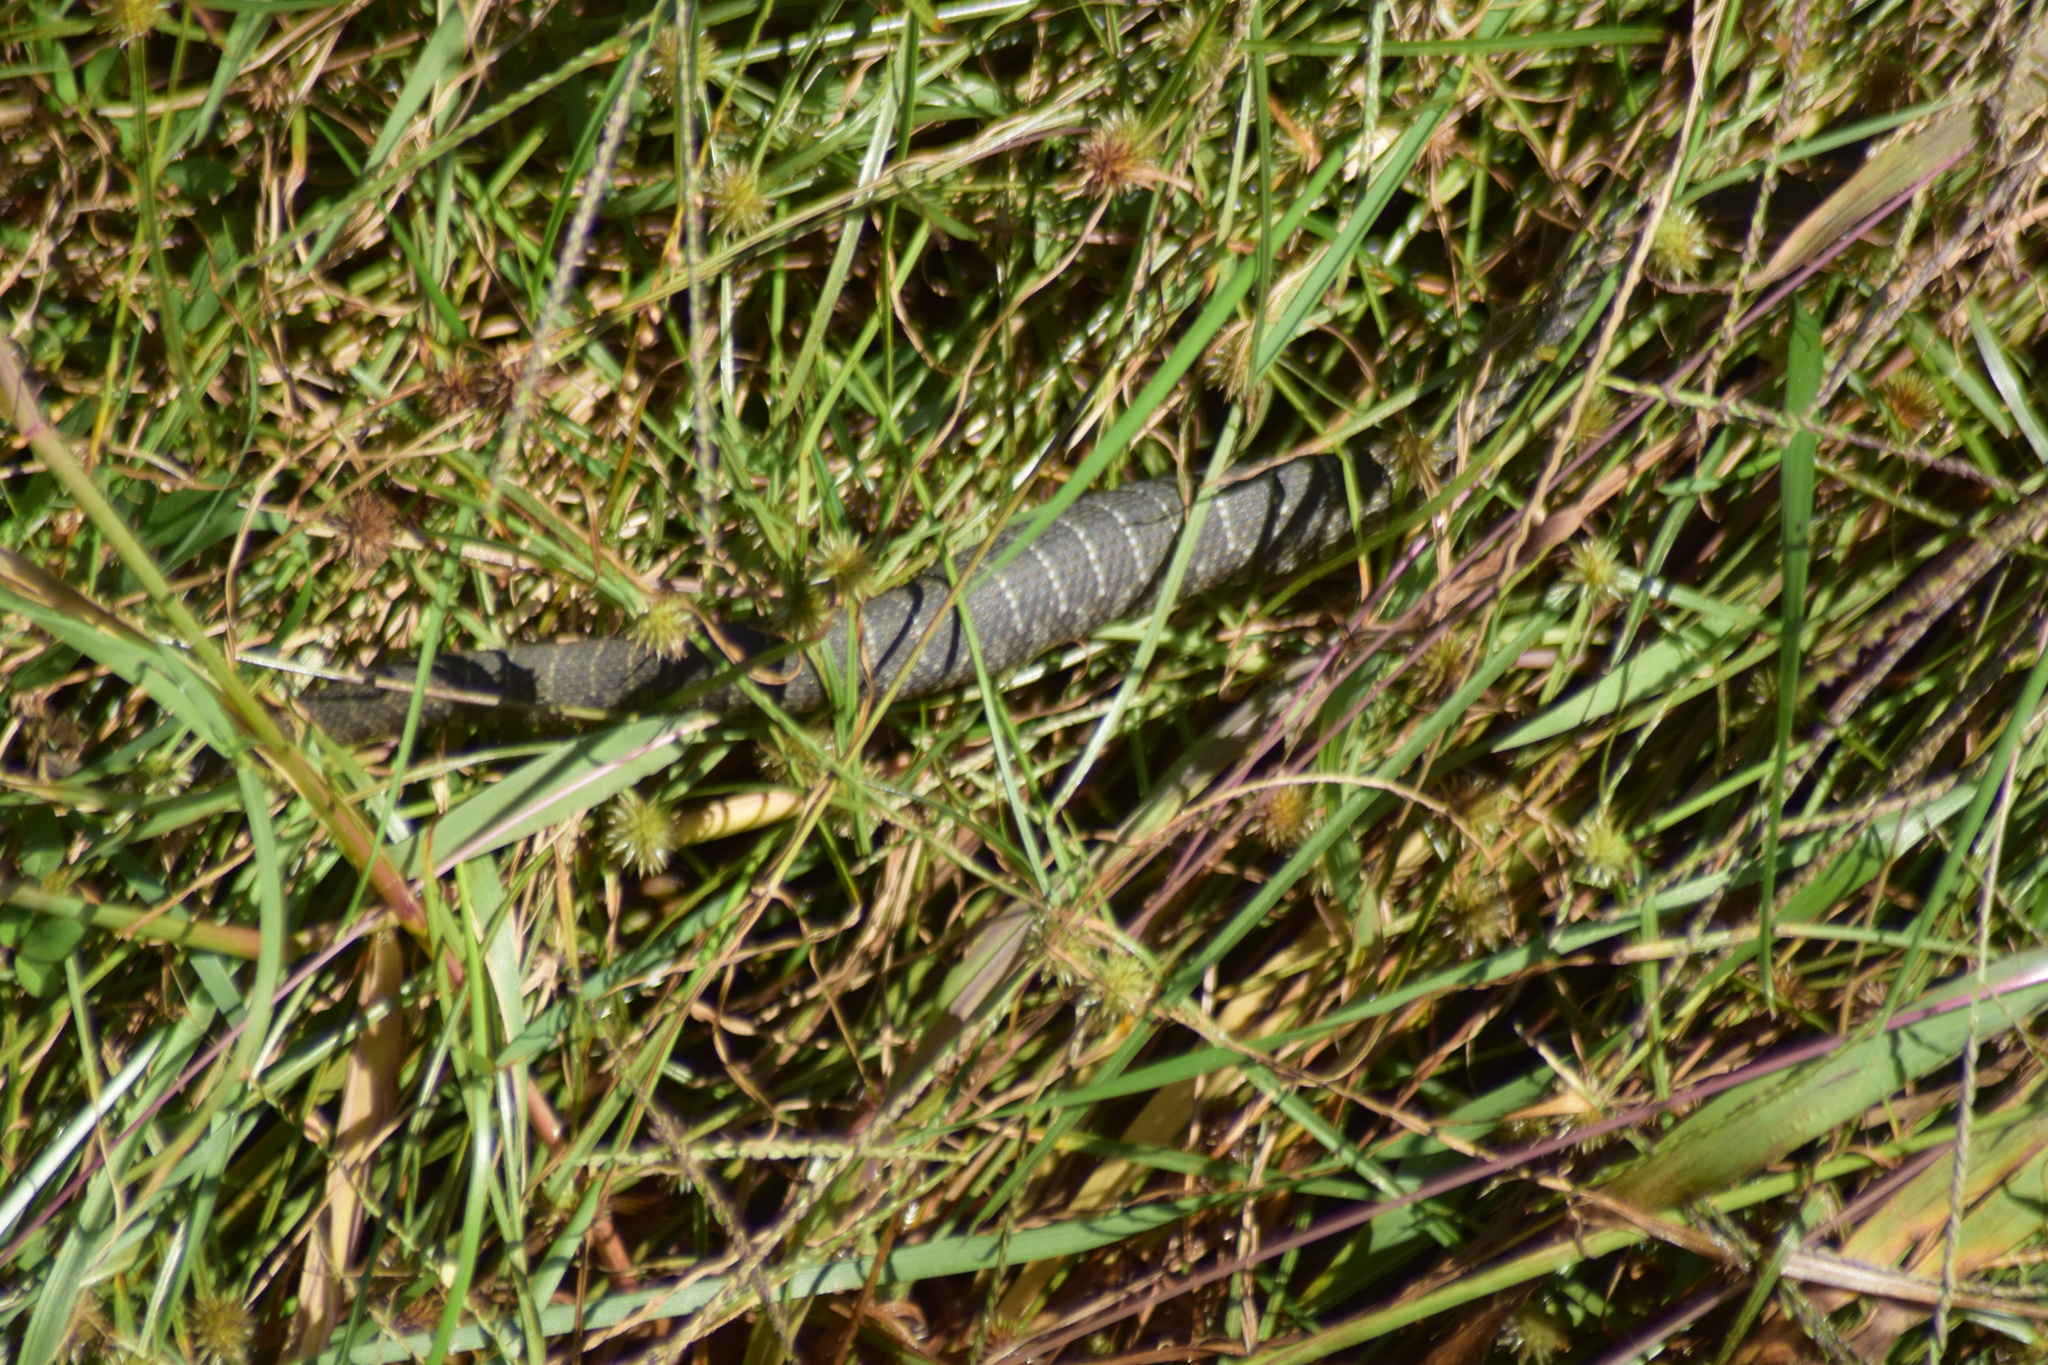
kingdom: Animalia
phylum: Chordata
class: Squamata
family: Colubridae
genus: Nerodia
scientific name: Nerodia sipedon
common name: Northern water snake
